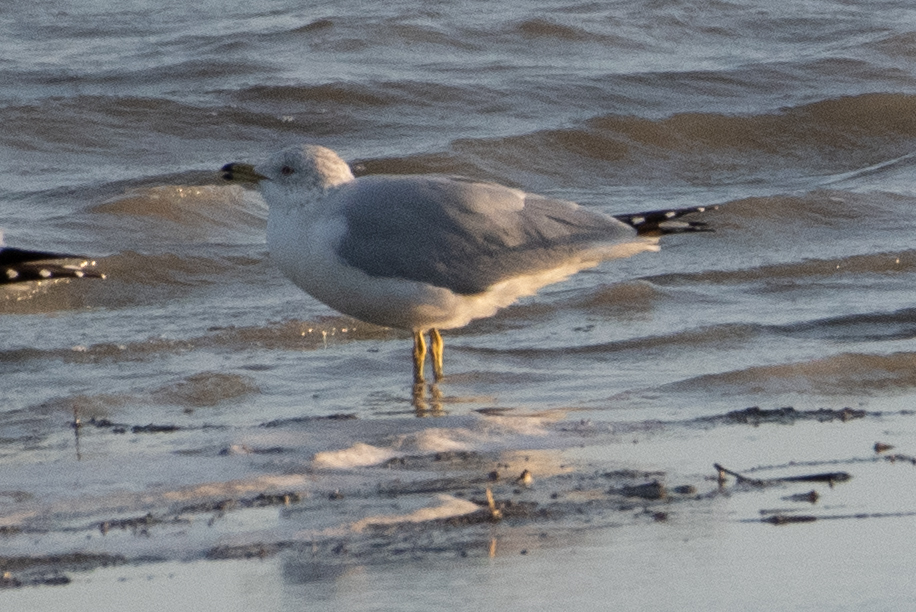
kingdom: Animalia
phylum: Chordata
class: Aves
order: Charadriiformes
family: Laridae
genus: Larus
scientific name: Larus delawarensis
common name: Ring-billed gull
